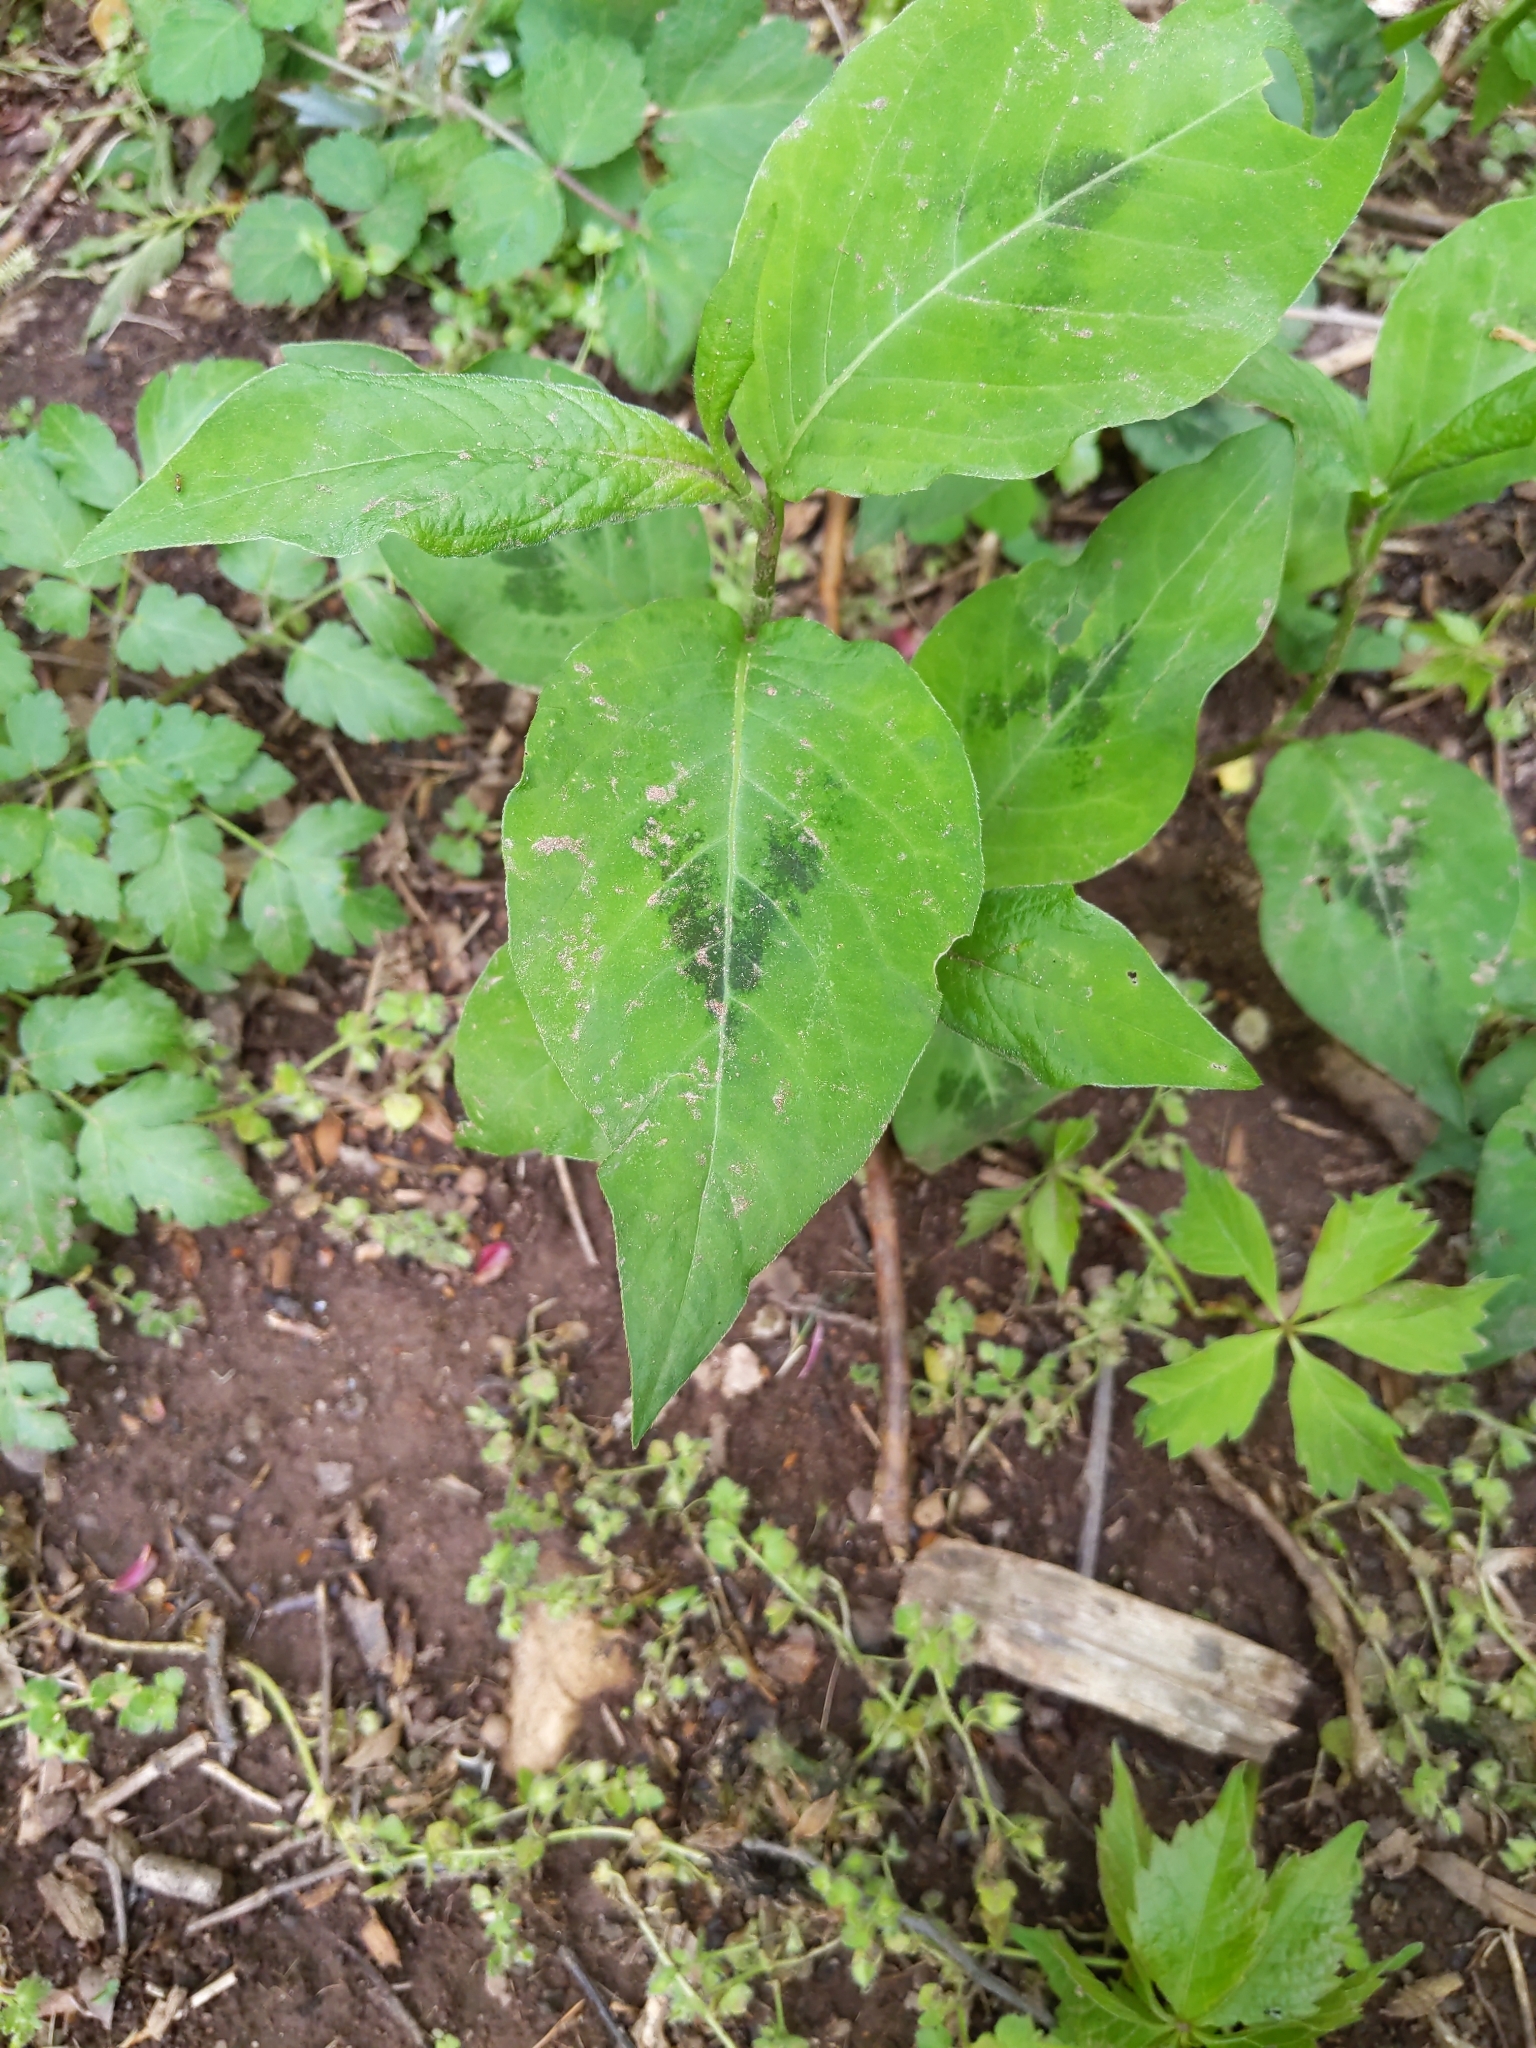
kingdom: Plantae
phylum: Tracheophyta
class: Magnoliopsida
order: Caryophyllales
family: Polygonaceae
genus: Persicaria
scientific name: Persicaria virginiana
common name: Jumpseed
